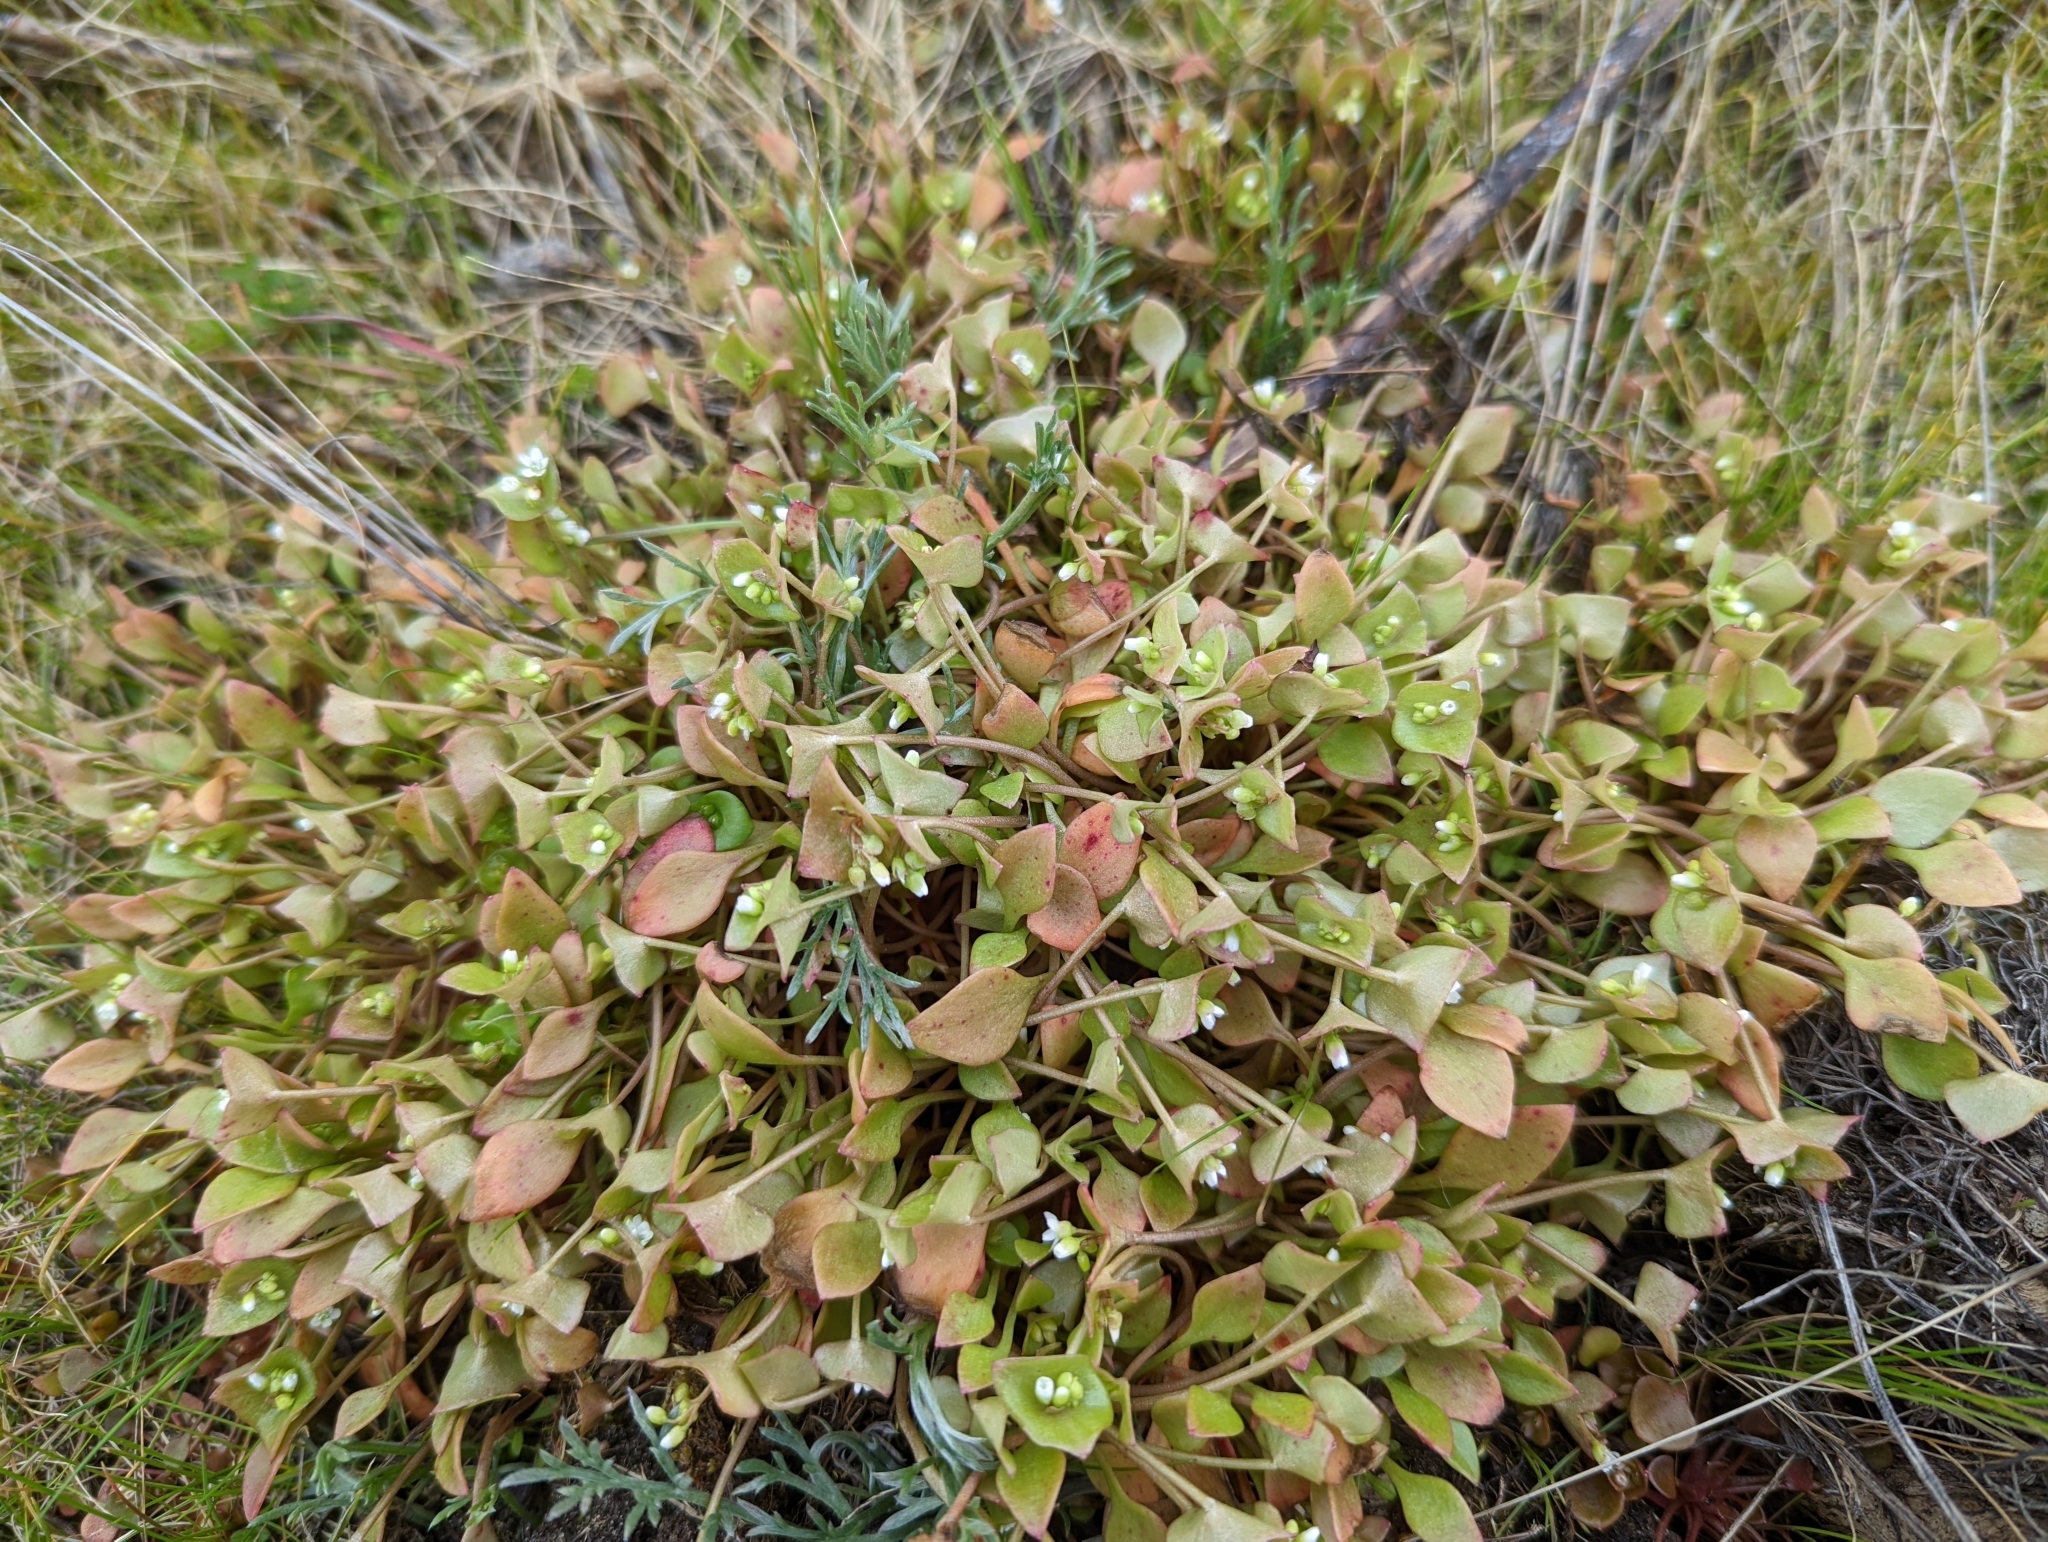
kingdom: Plantae
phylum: Tracheophyta
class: Magnoliopsida
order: Caryophyllales
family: Montiaceae
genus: Claytonia
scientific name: Claytonia rubra
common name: Erubescent miner's-lettuce
